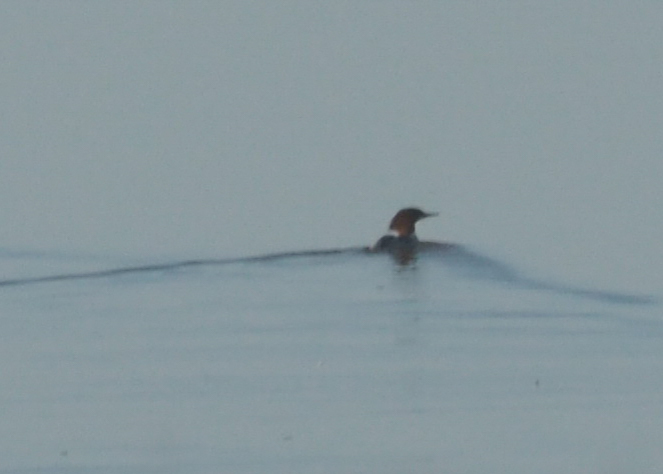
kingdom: Animalia
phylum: Chordata
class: Aves
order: Anseriformes
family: Anatidae
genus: Mergus
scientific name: Mergus merganser
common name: Common merganser
